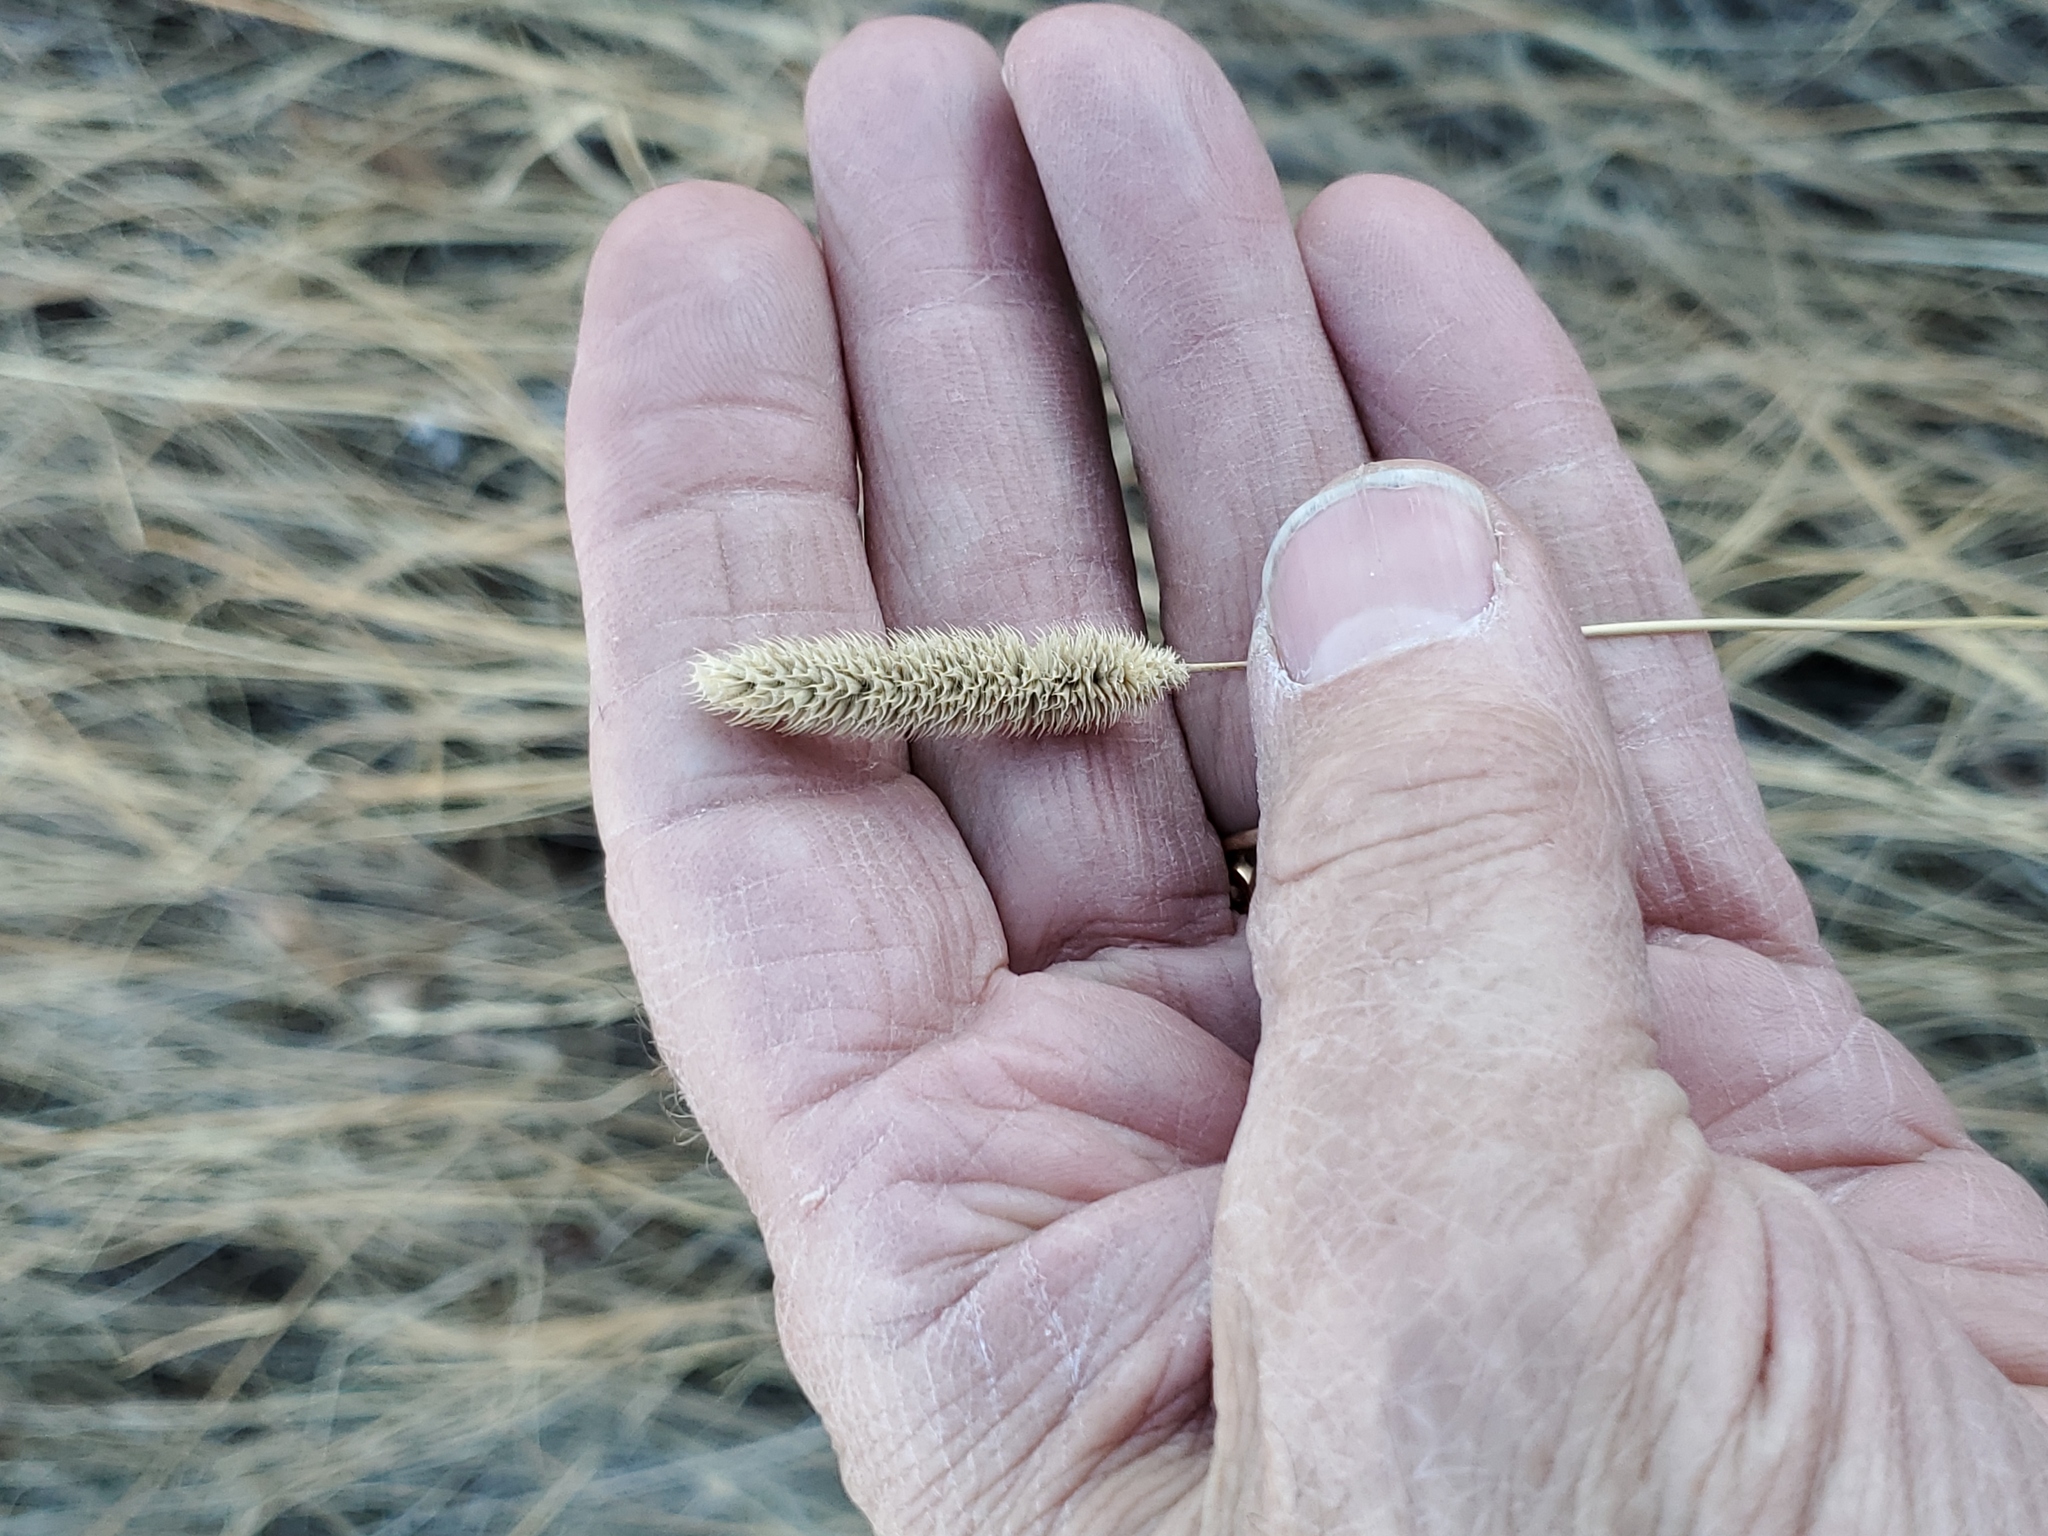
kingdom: Plantae
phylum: Tracheophyta
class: Liliopsida
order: Poales
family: Poaceae
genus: Phleum
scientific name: Phleum pratense
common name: Timothy grass
